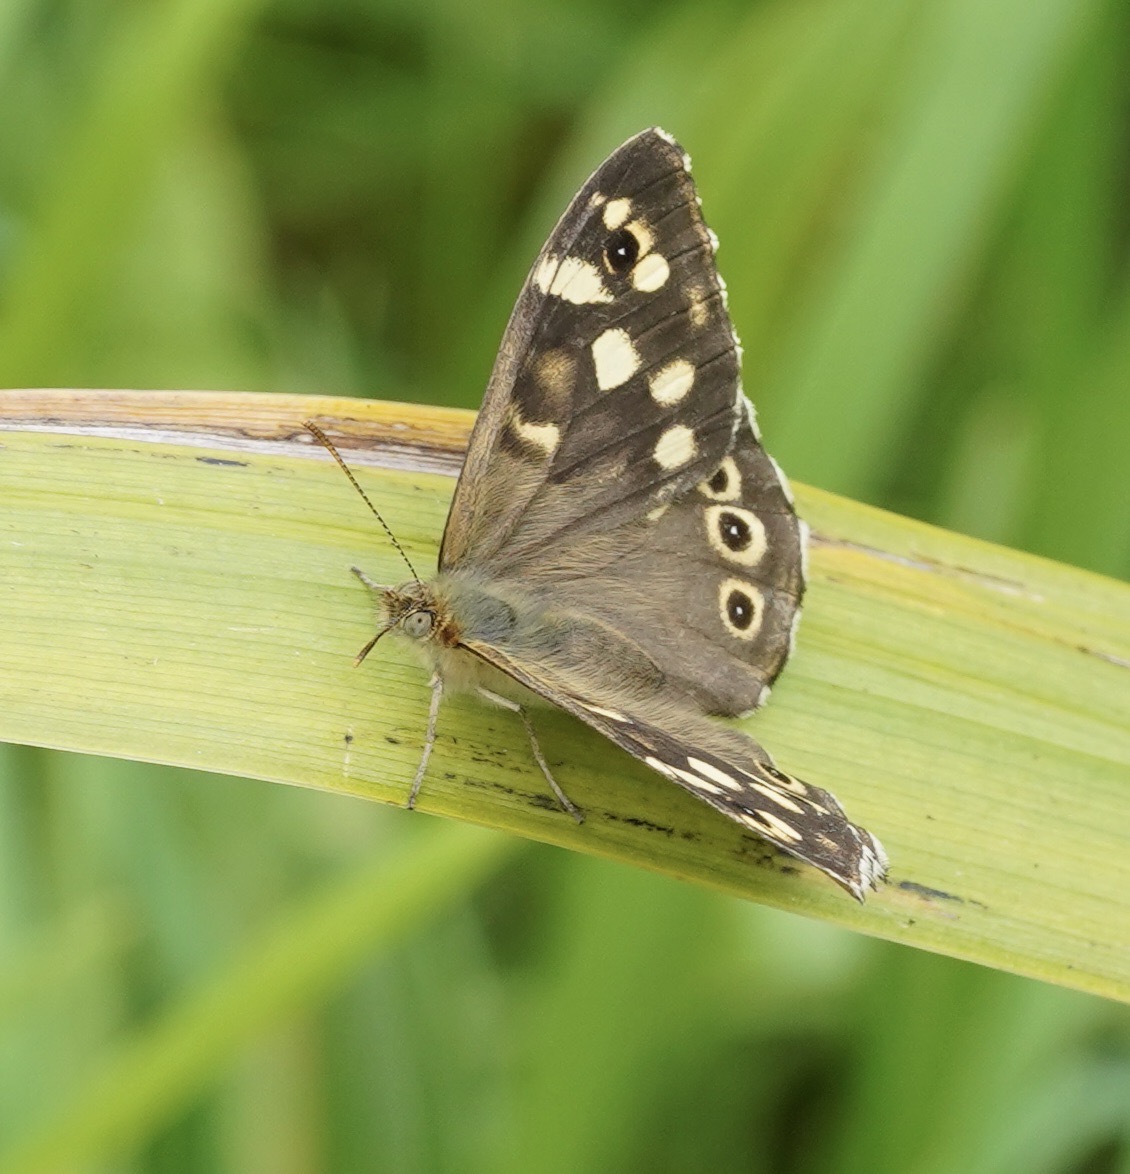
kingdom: Animalia
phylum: Arthropoda
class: Insecta
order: Lepidoptera
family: Nymphalidae
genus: Pararge
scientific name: Pararge aegeria
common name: Speckled wood
